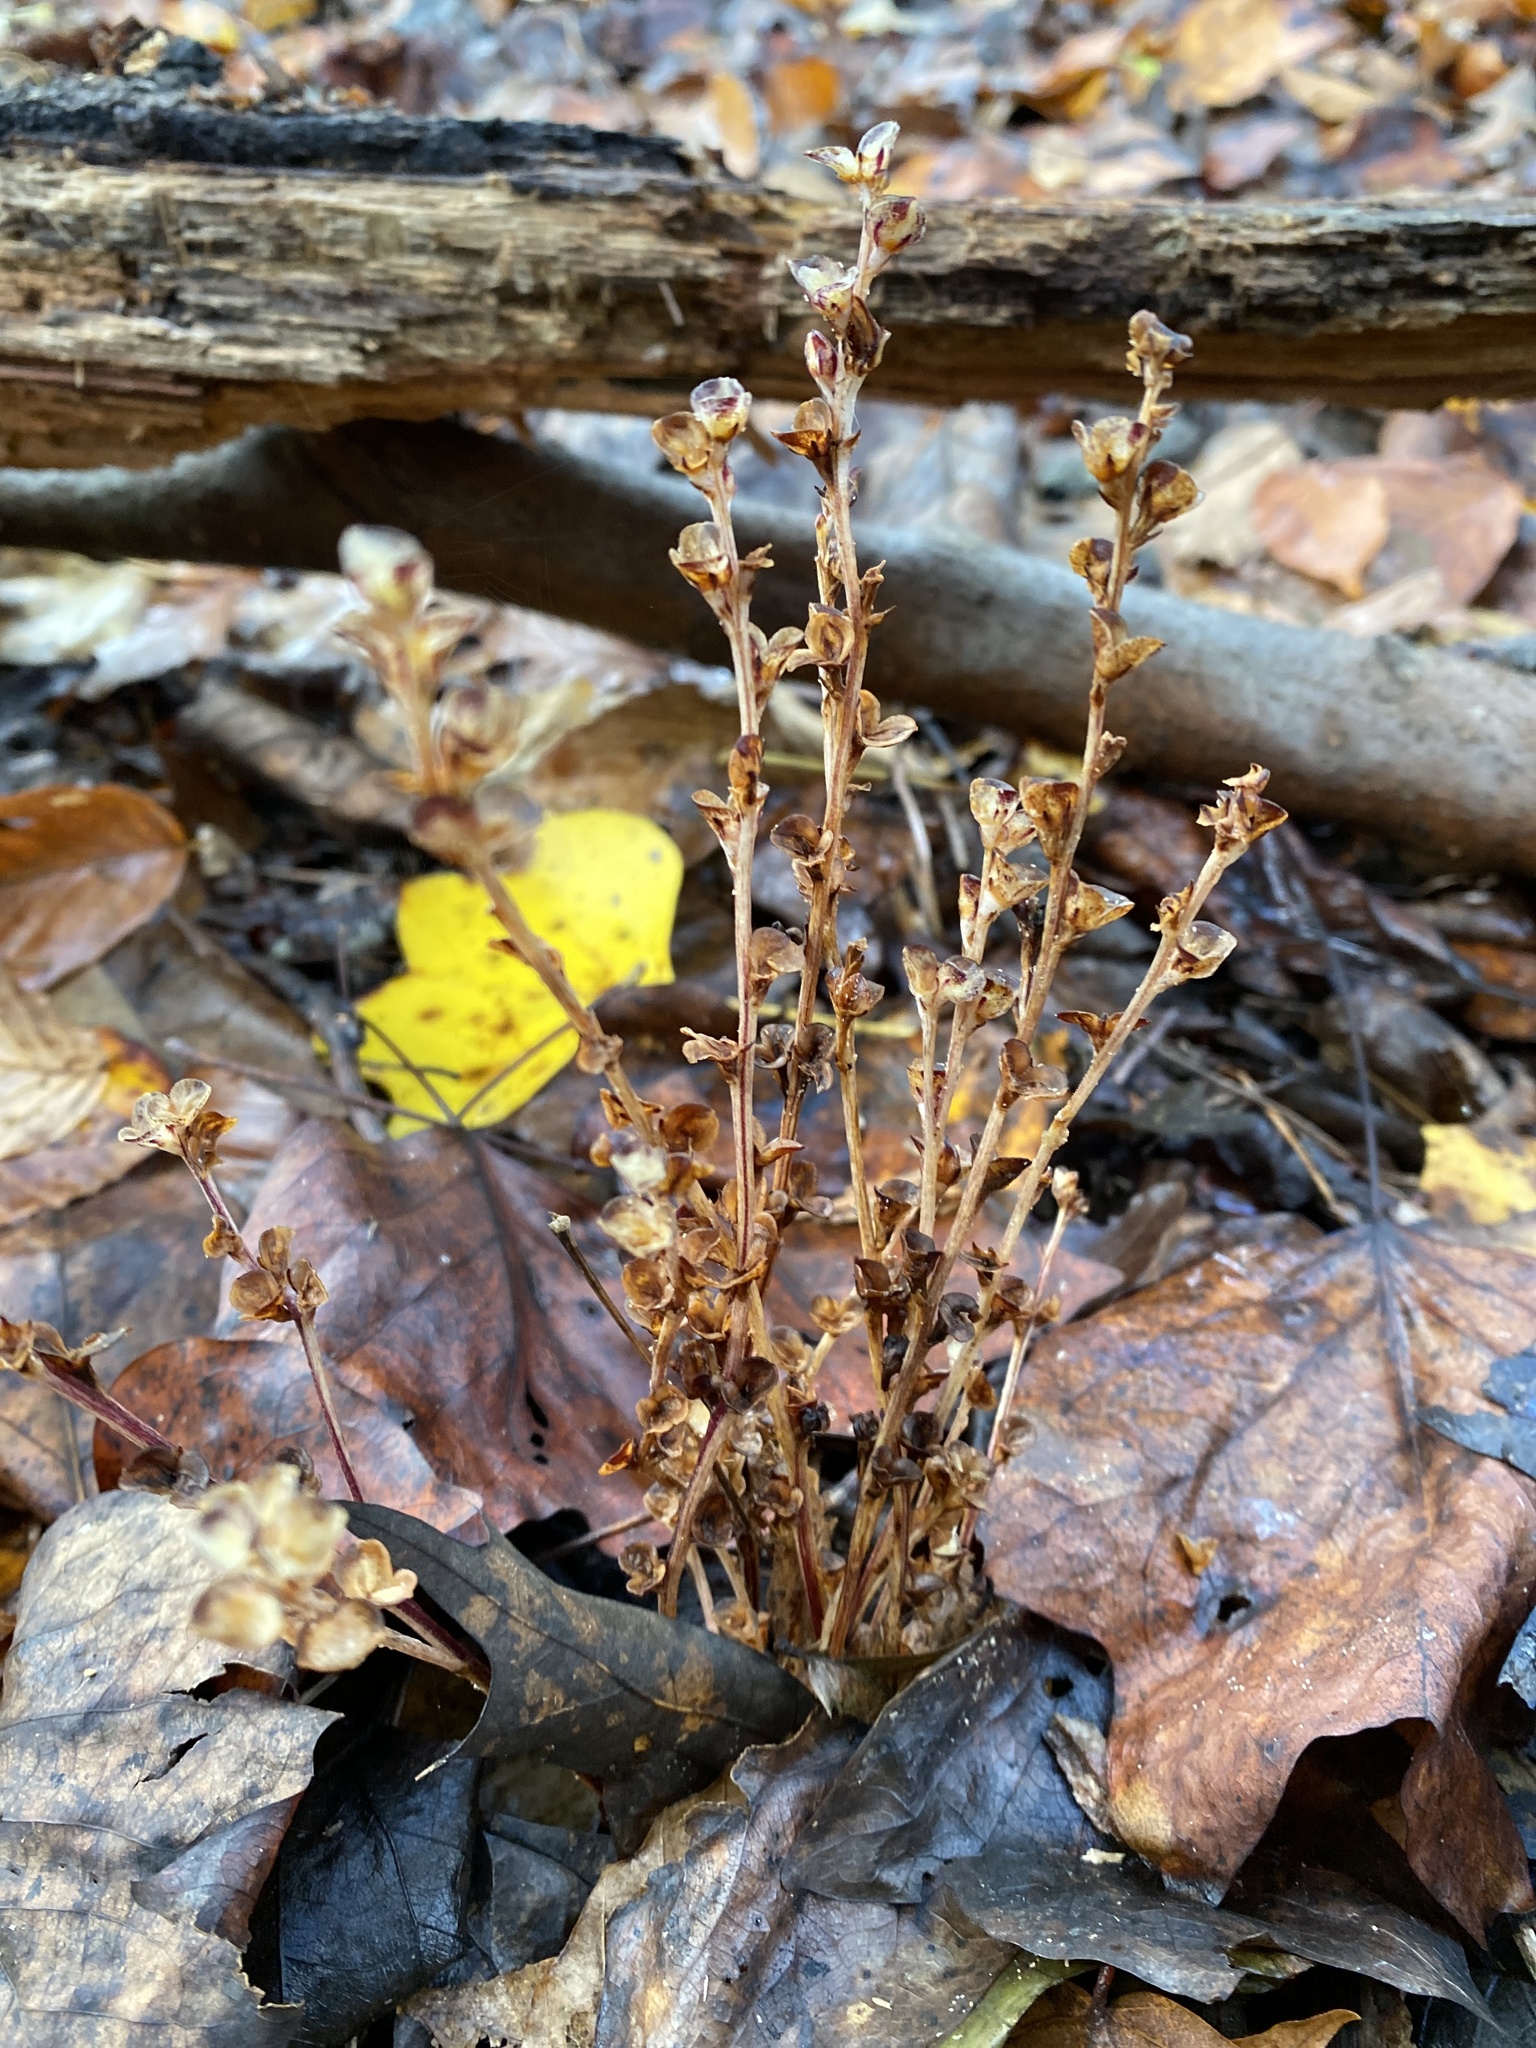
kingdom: Plantae
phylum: Tracheophyta
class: Magnoliopsida
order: Lamiales
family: Orobanchaceae
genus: Epifagus
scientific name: Epifagus virginiana
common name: Beechdrops
